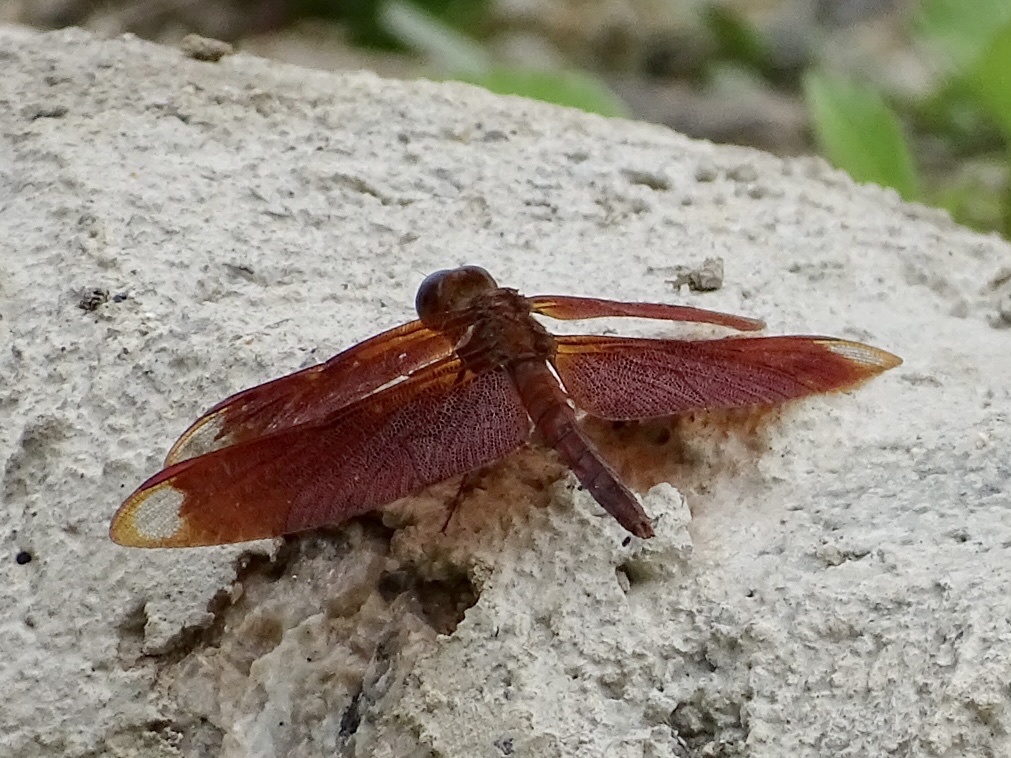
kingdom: Animalia
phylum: Arthropoda
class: Insecta
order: Odonata
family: Libellulidae
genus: Neurothemis
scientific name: Neurothemis fulvia
